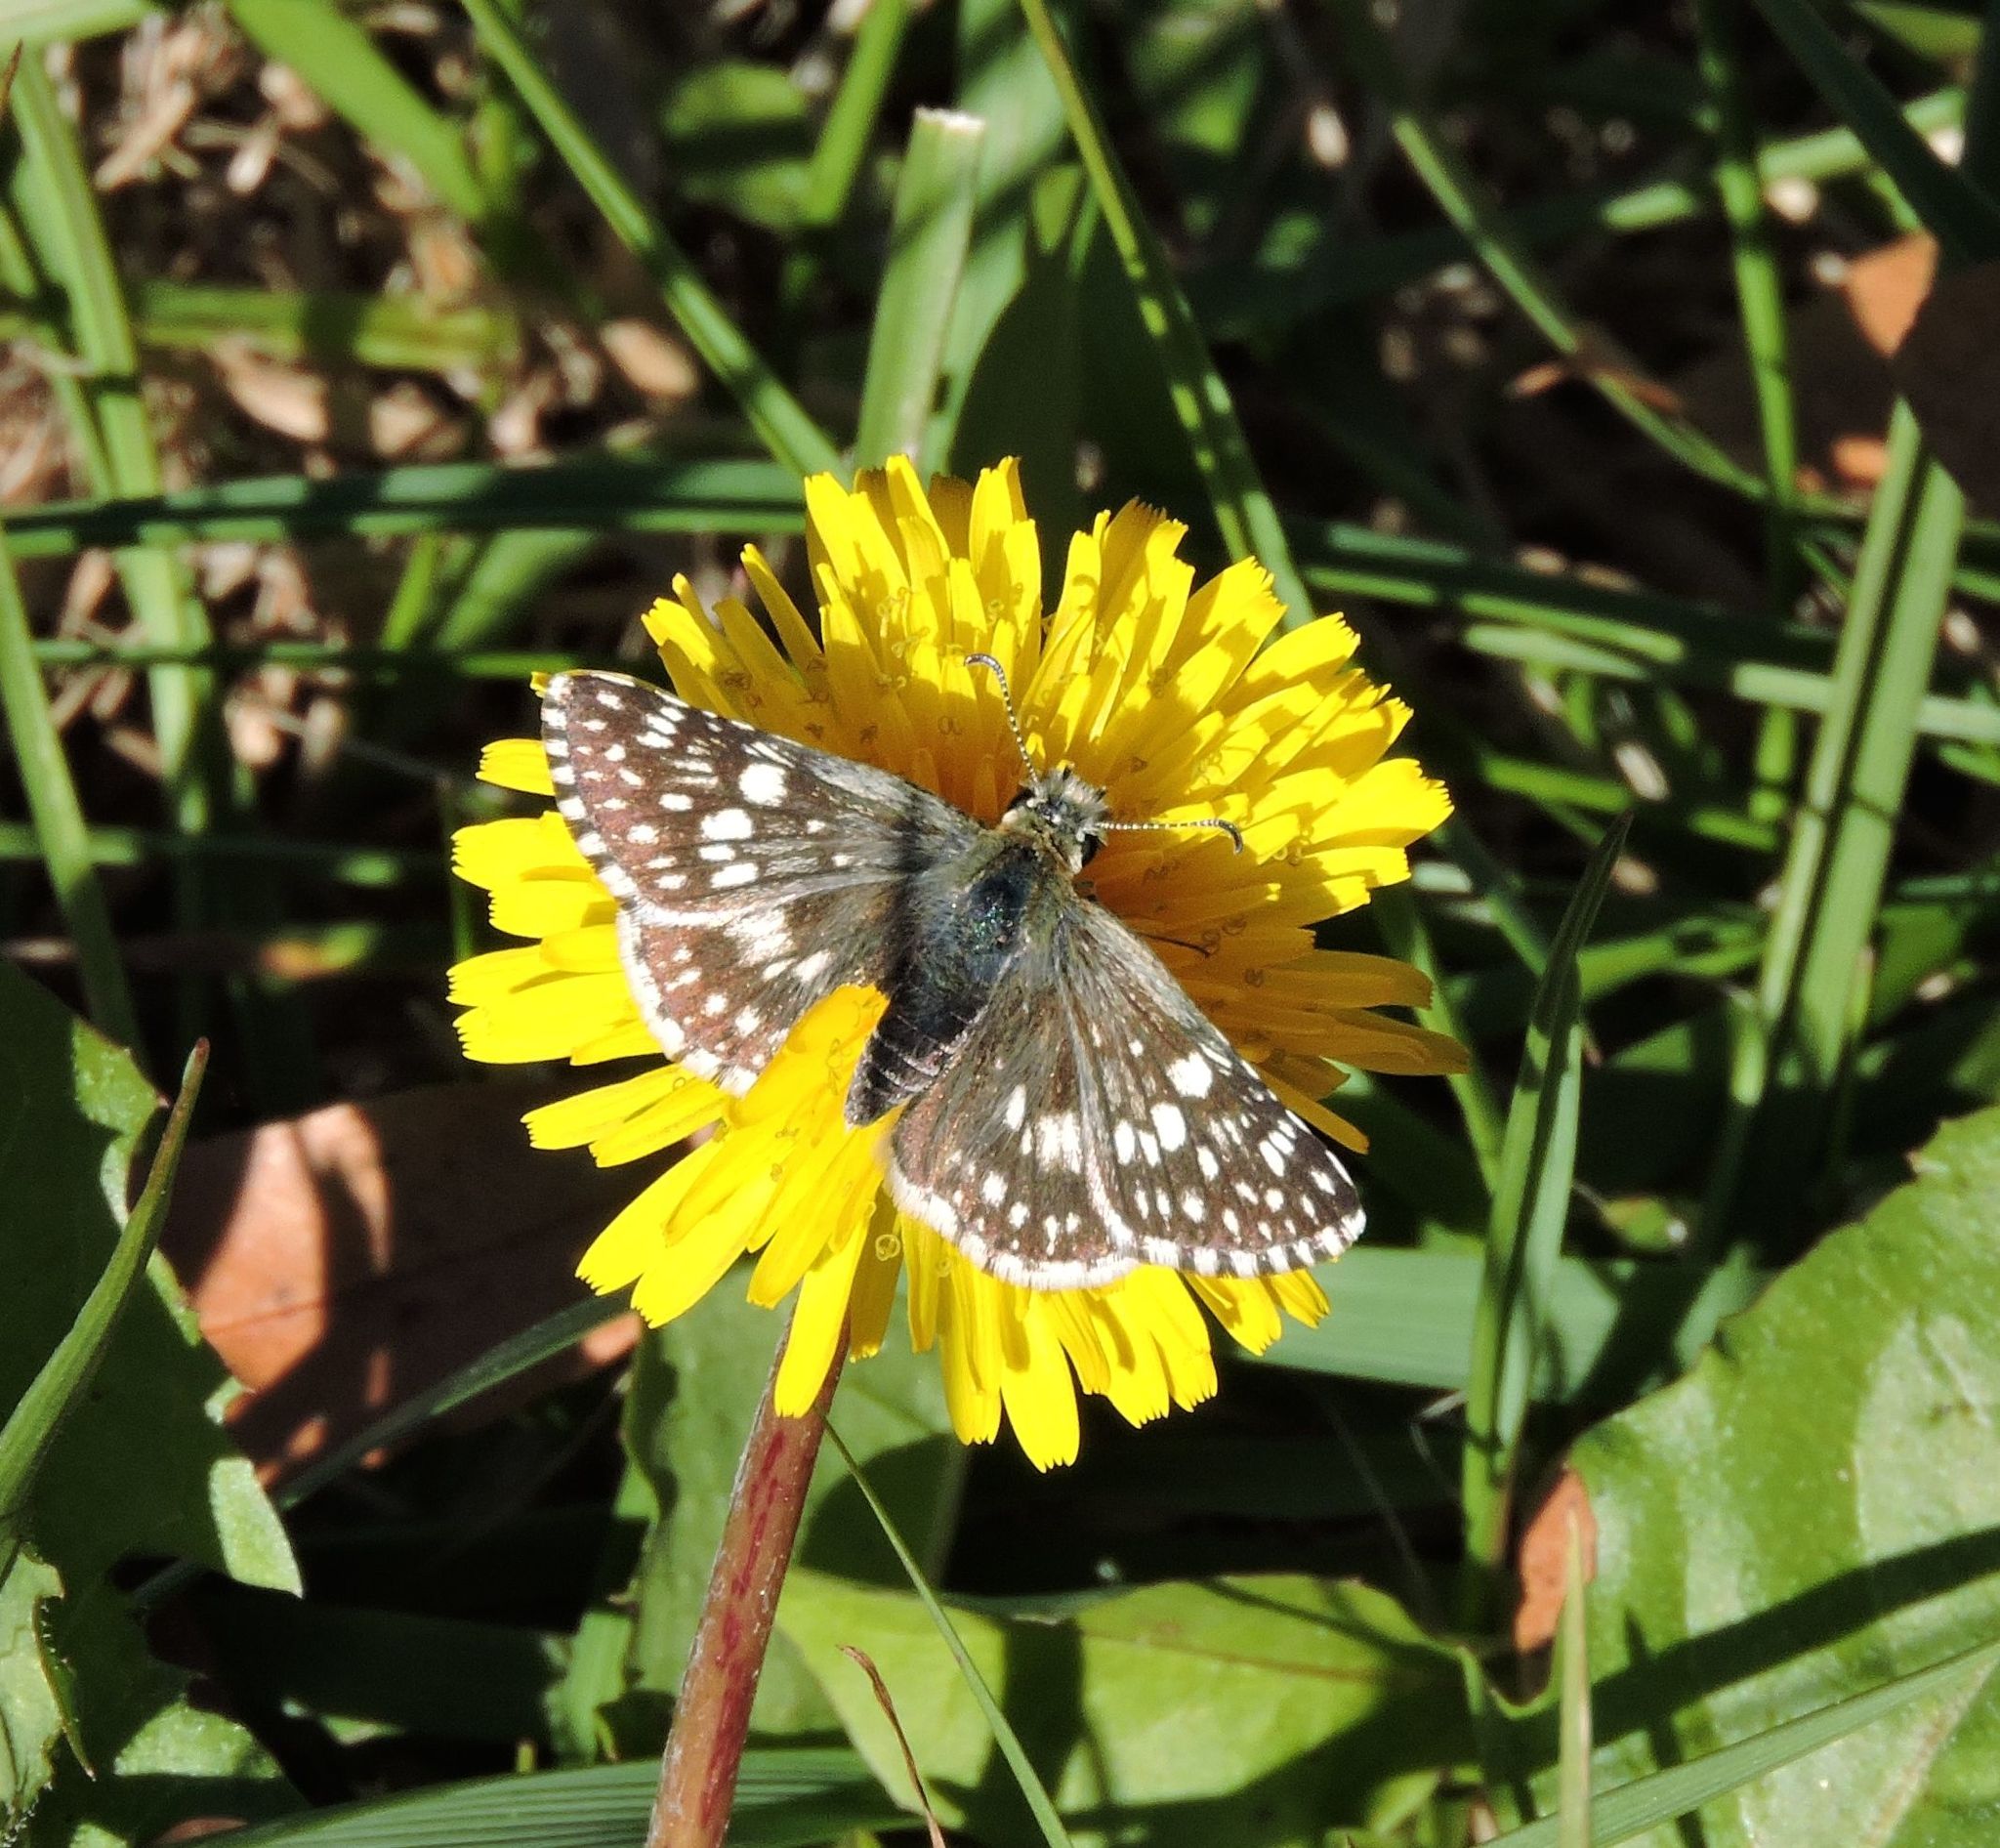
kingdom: Animalia
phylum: Arthropoda
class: Insecta
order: Lepidoptera
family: Hesperiidae
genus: Burnsius
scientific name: Burnsius communis
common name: Common checkered-skipper
